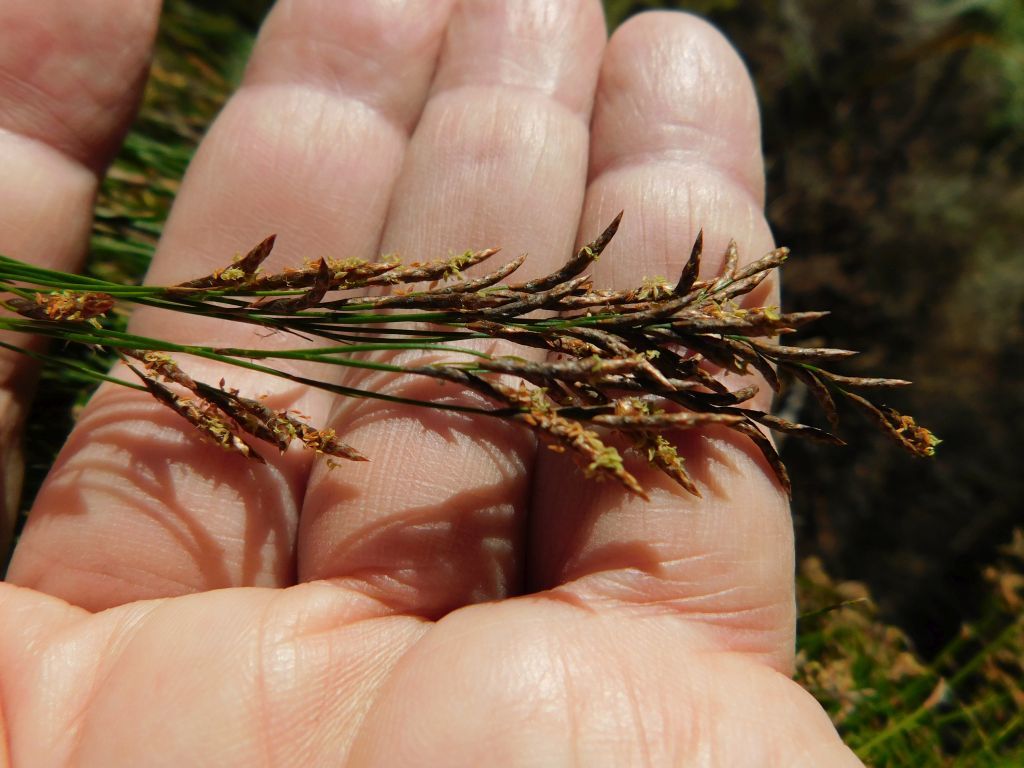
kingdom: Plantae
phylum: Tracheophyta
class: Liliopsida
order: Poales
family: Restionaceae
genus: Restio
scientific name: Restio subverticillatus
